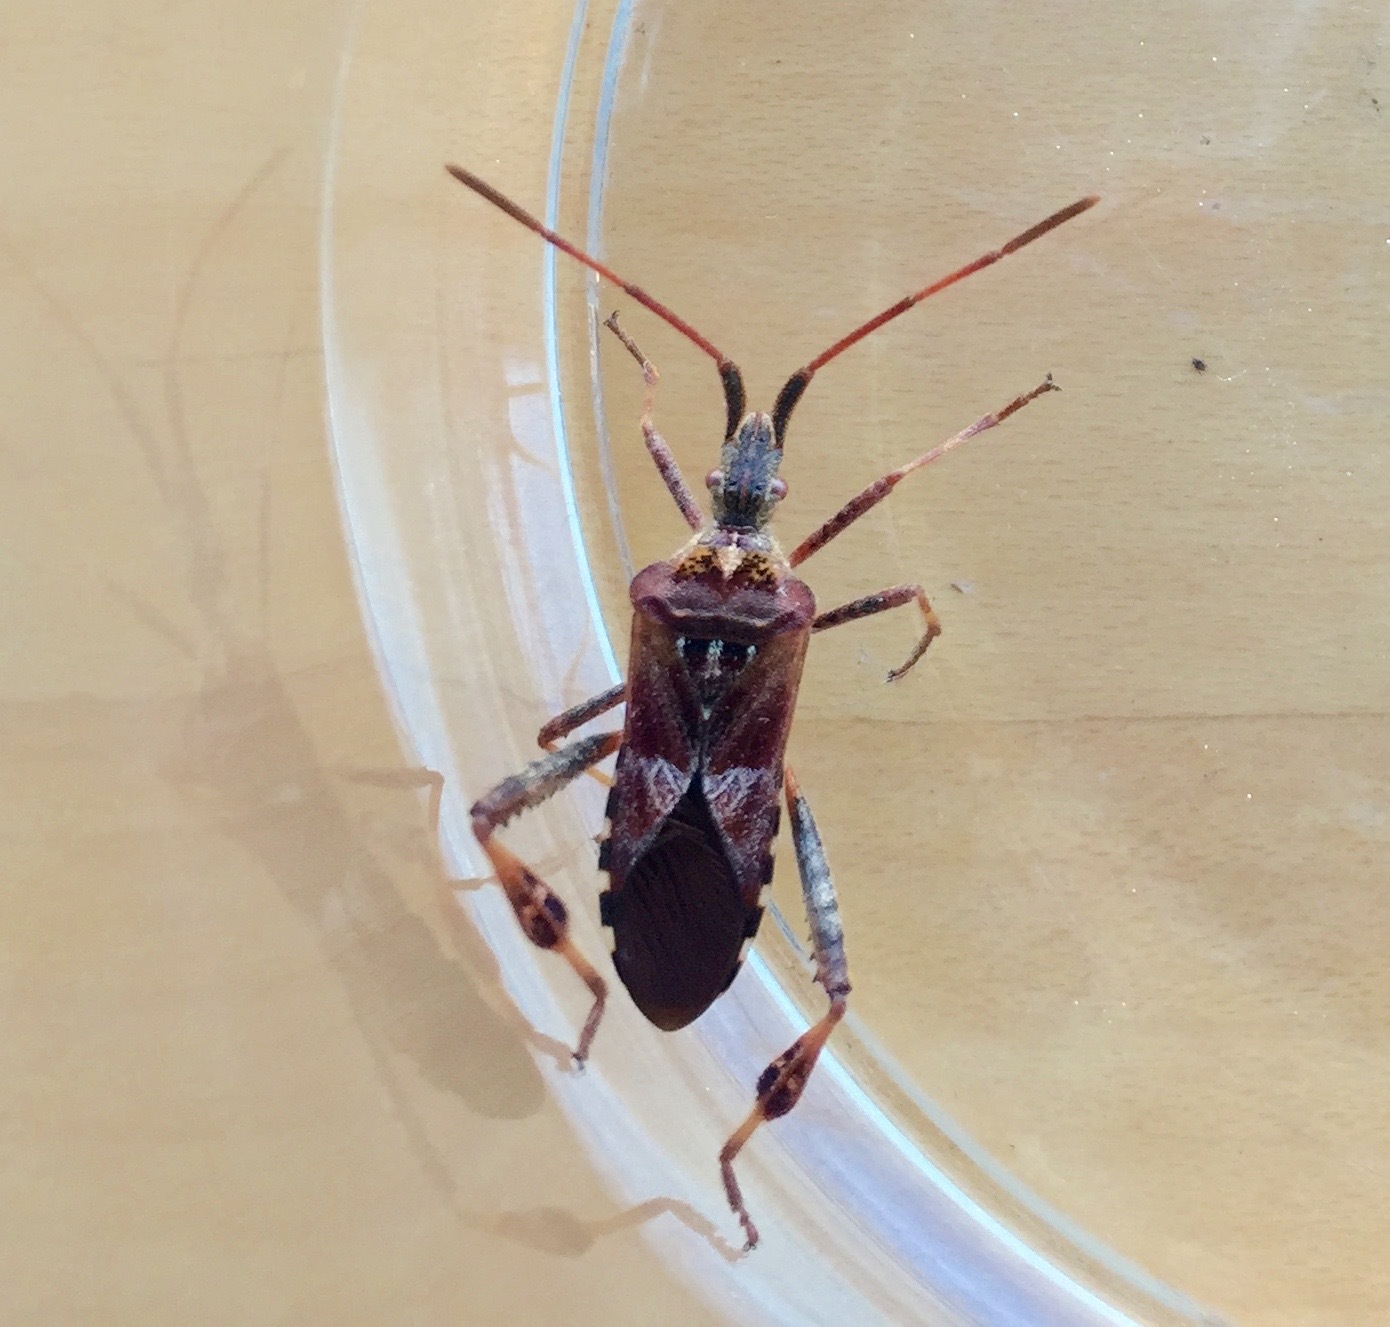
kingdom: Animalia
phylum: Arthropoda
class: Insecta
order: Hemiptera
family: Coreidae
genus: Leptoglossus
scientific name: Leptoglossus occidentalis
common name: Western conifer-seed bug
